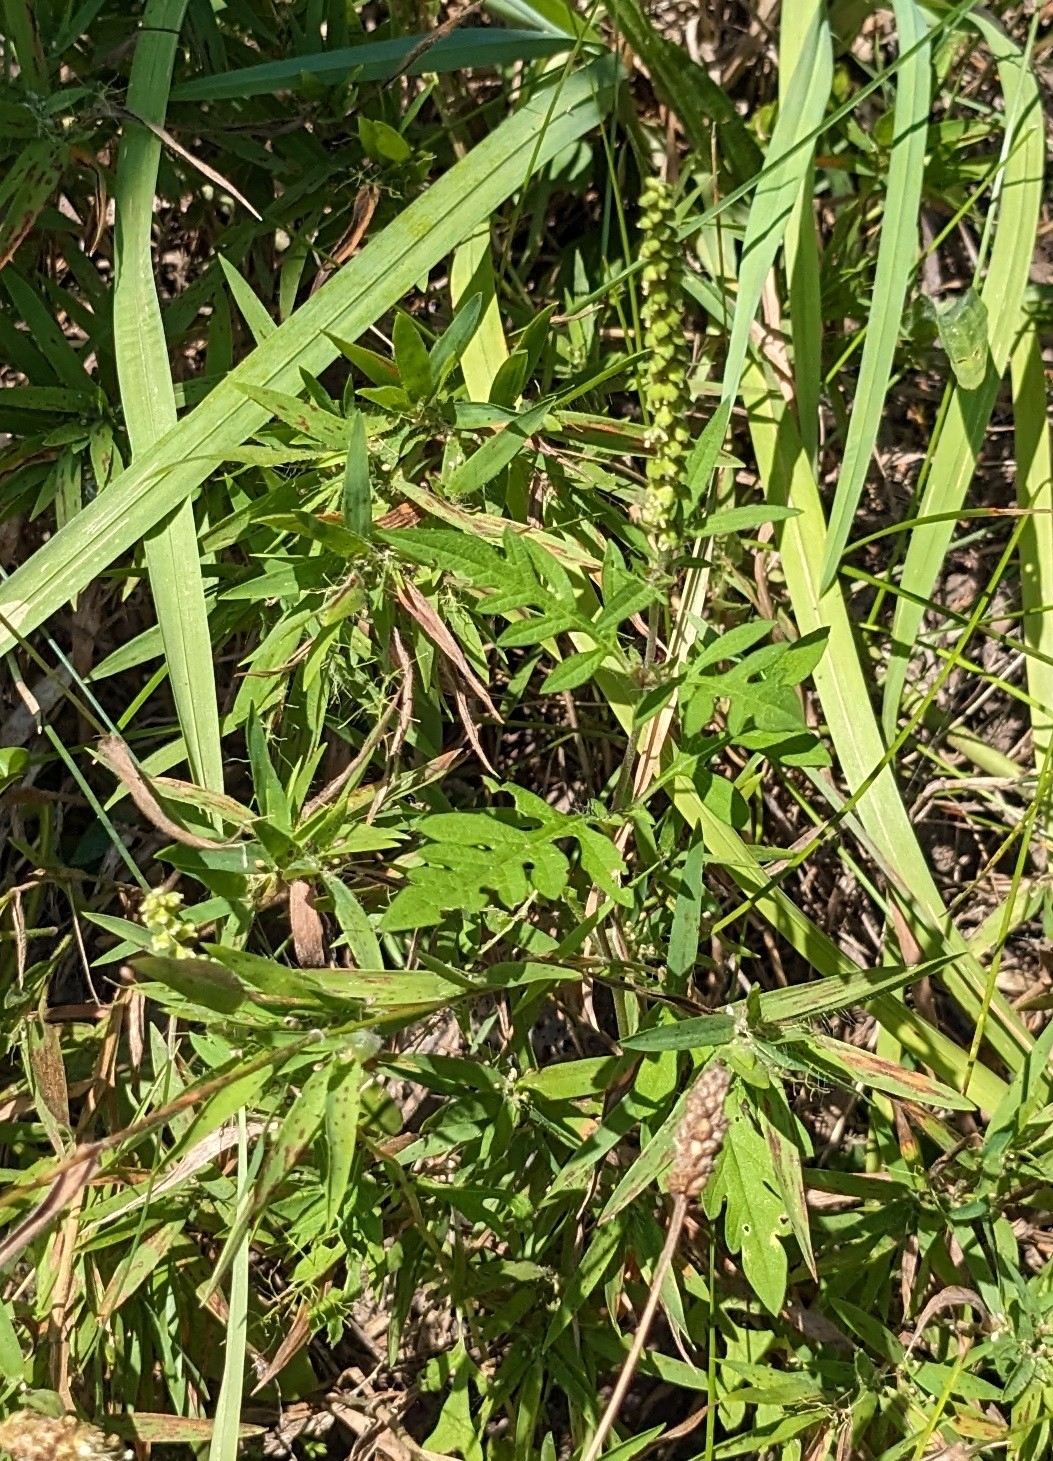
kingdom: Plantae
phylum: Tracheophyta
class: Magnoliopsida
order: Asterales
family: Asteraceae
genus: Ambrosia
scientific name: Ambrosia artemisiifolia
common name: Annual ragweed
